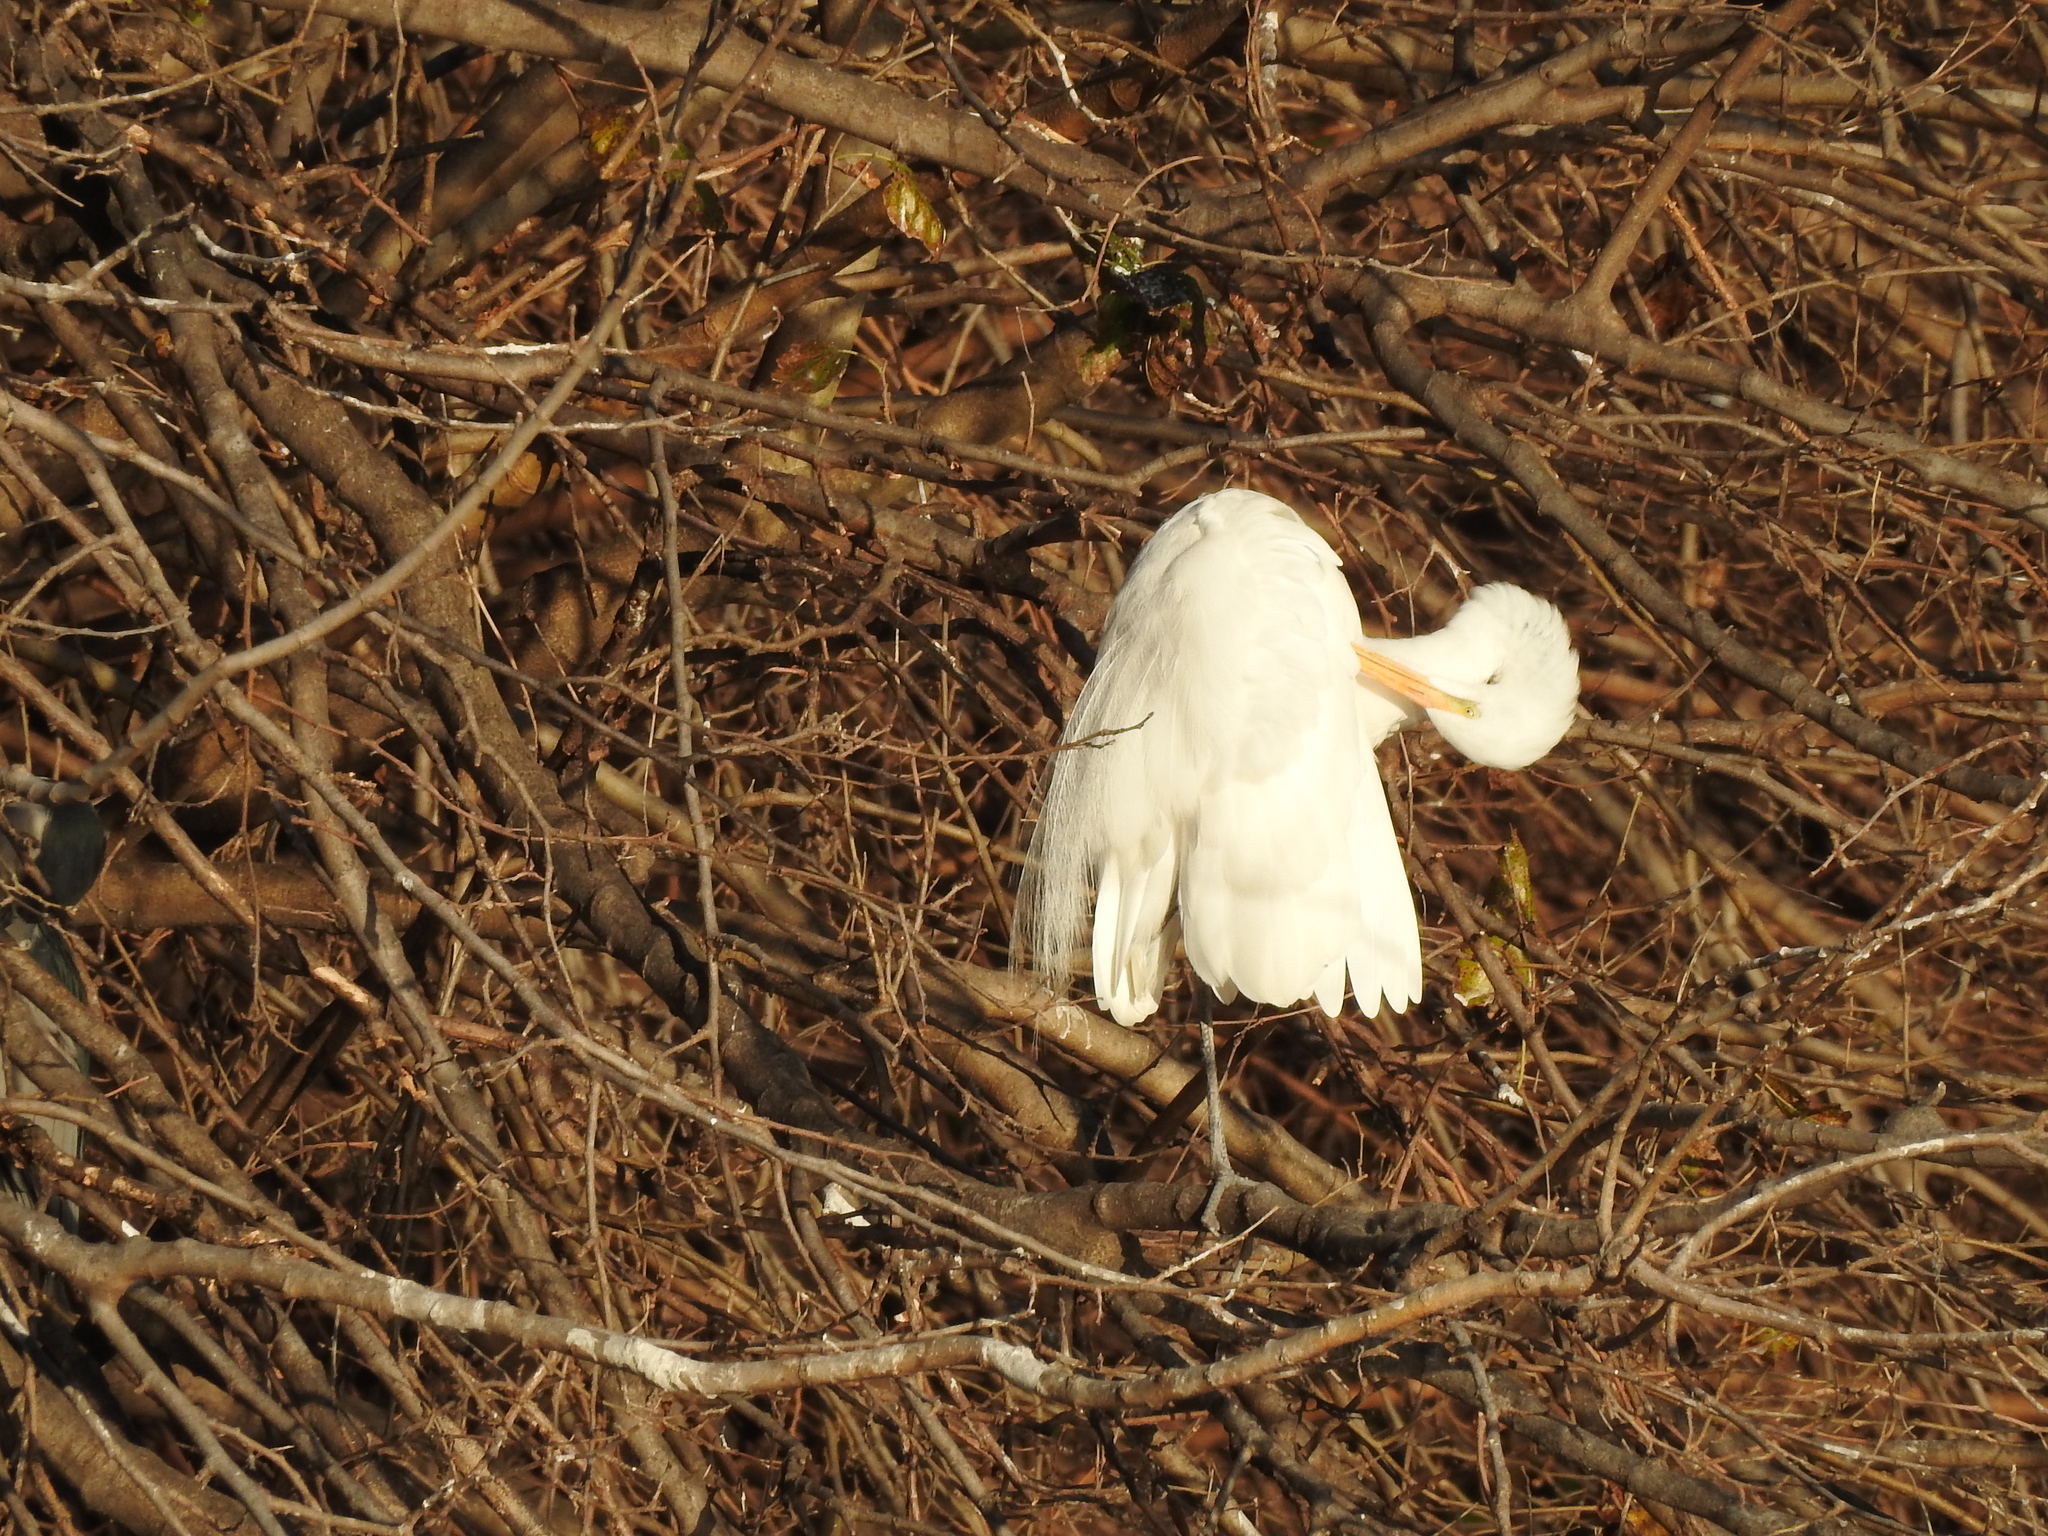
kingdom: Animalia
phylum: Chordata
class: Aves
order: Pelecaniformes
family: Ardeidae
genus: Ardea
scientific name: Ardea alba
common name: Great egret
